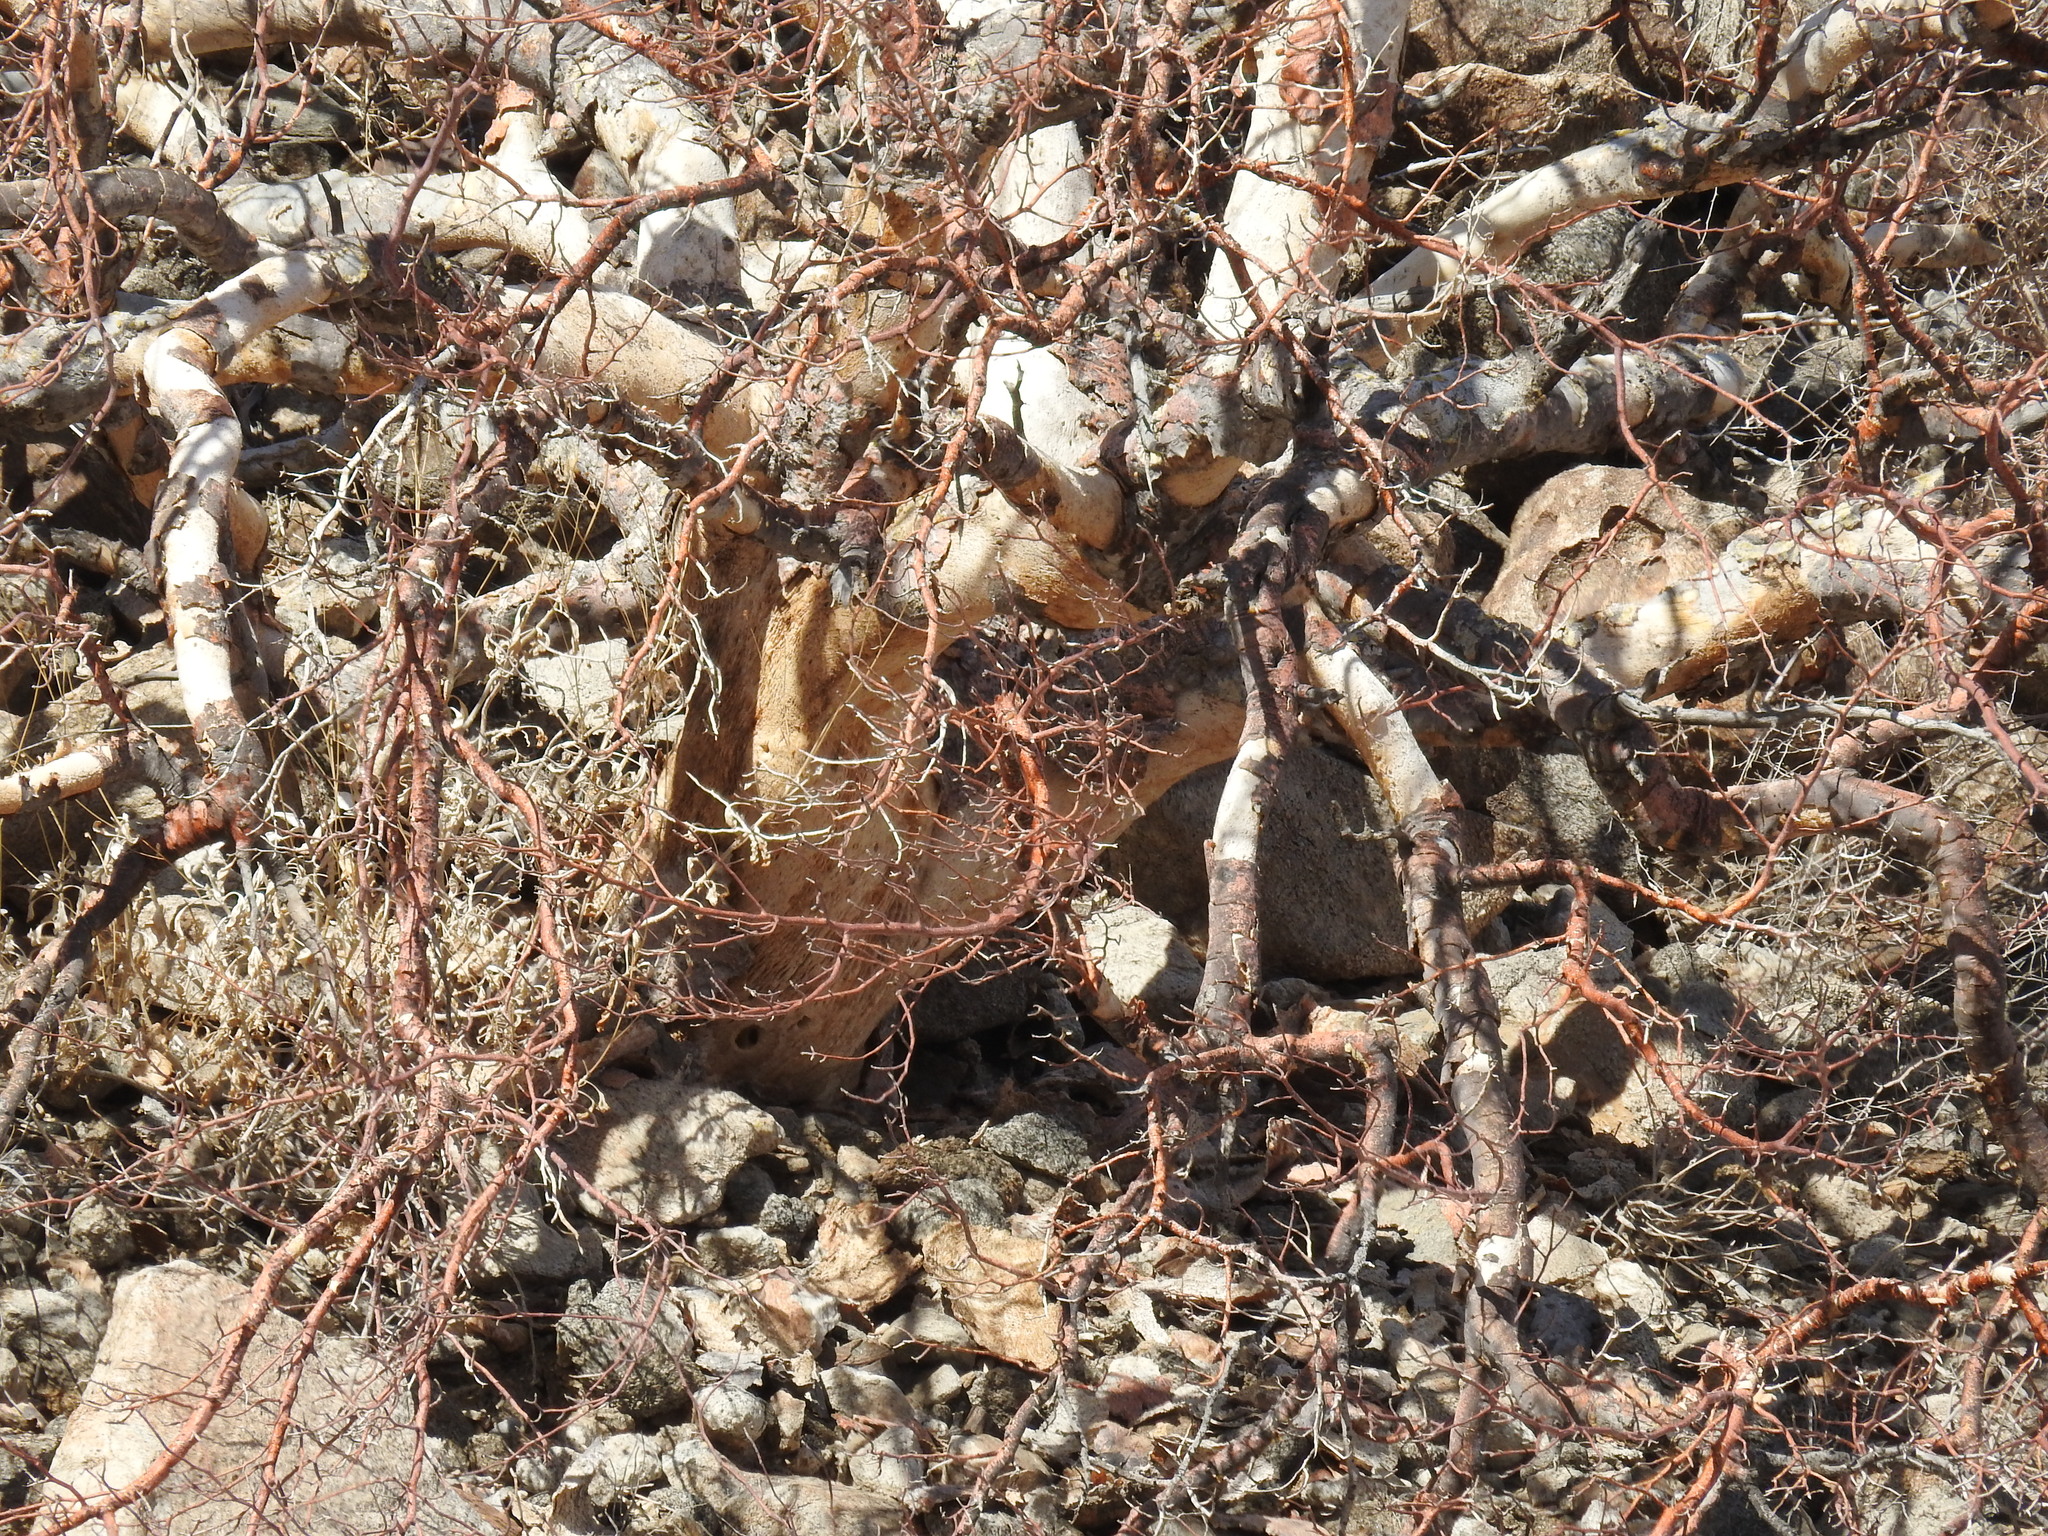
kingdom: Plantae
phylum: Tracheophyta
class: Magnoliopsida
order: Sapindales
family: Anacardiaceae
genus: Pachycormus
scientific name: Pachycormus discolor
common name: Succulent elephant trees
